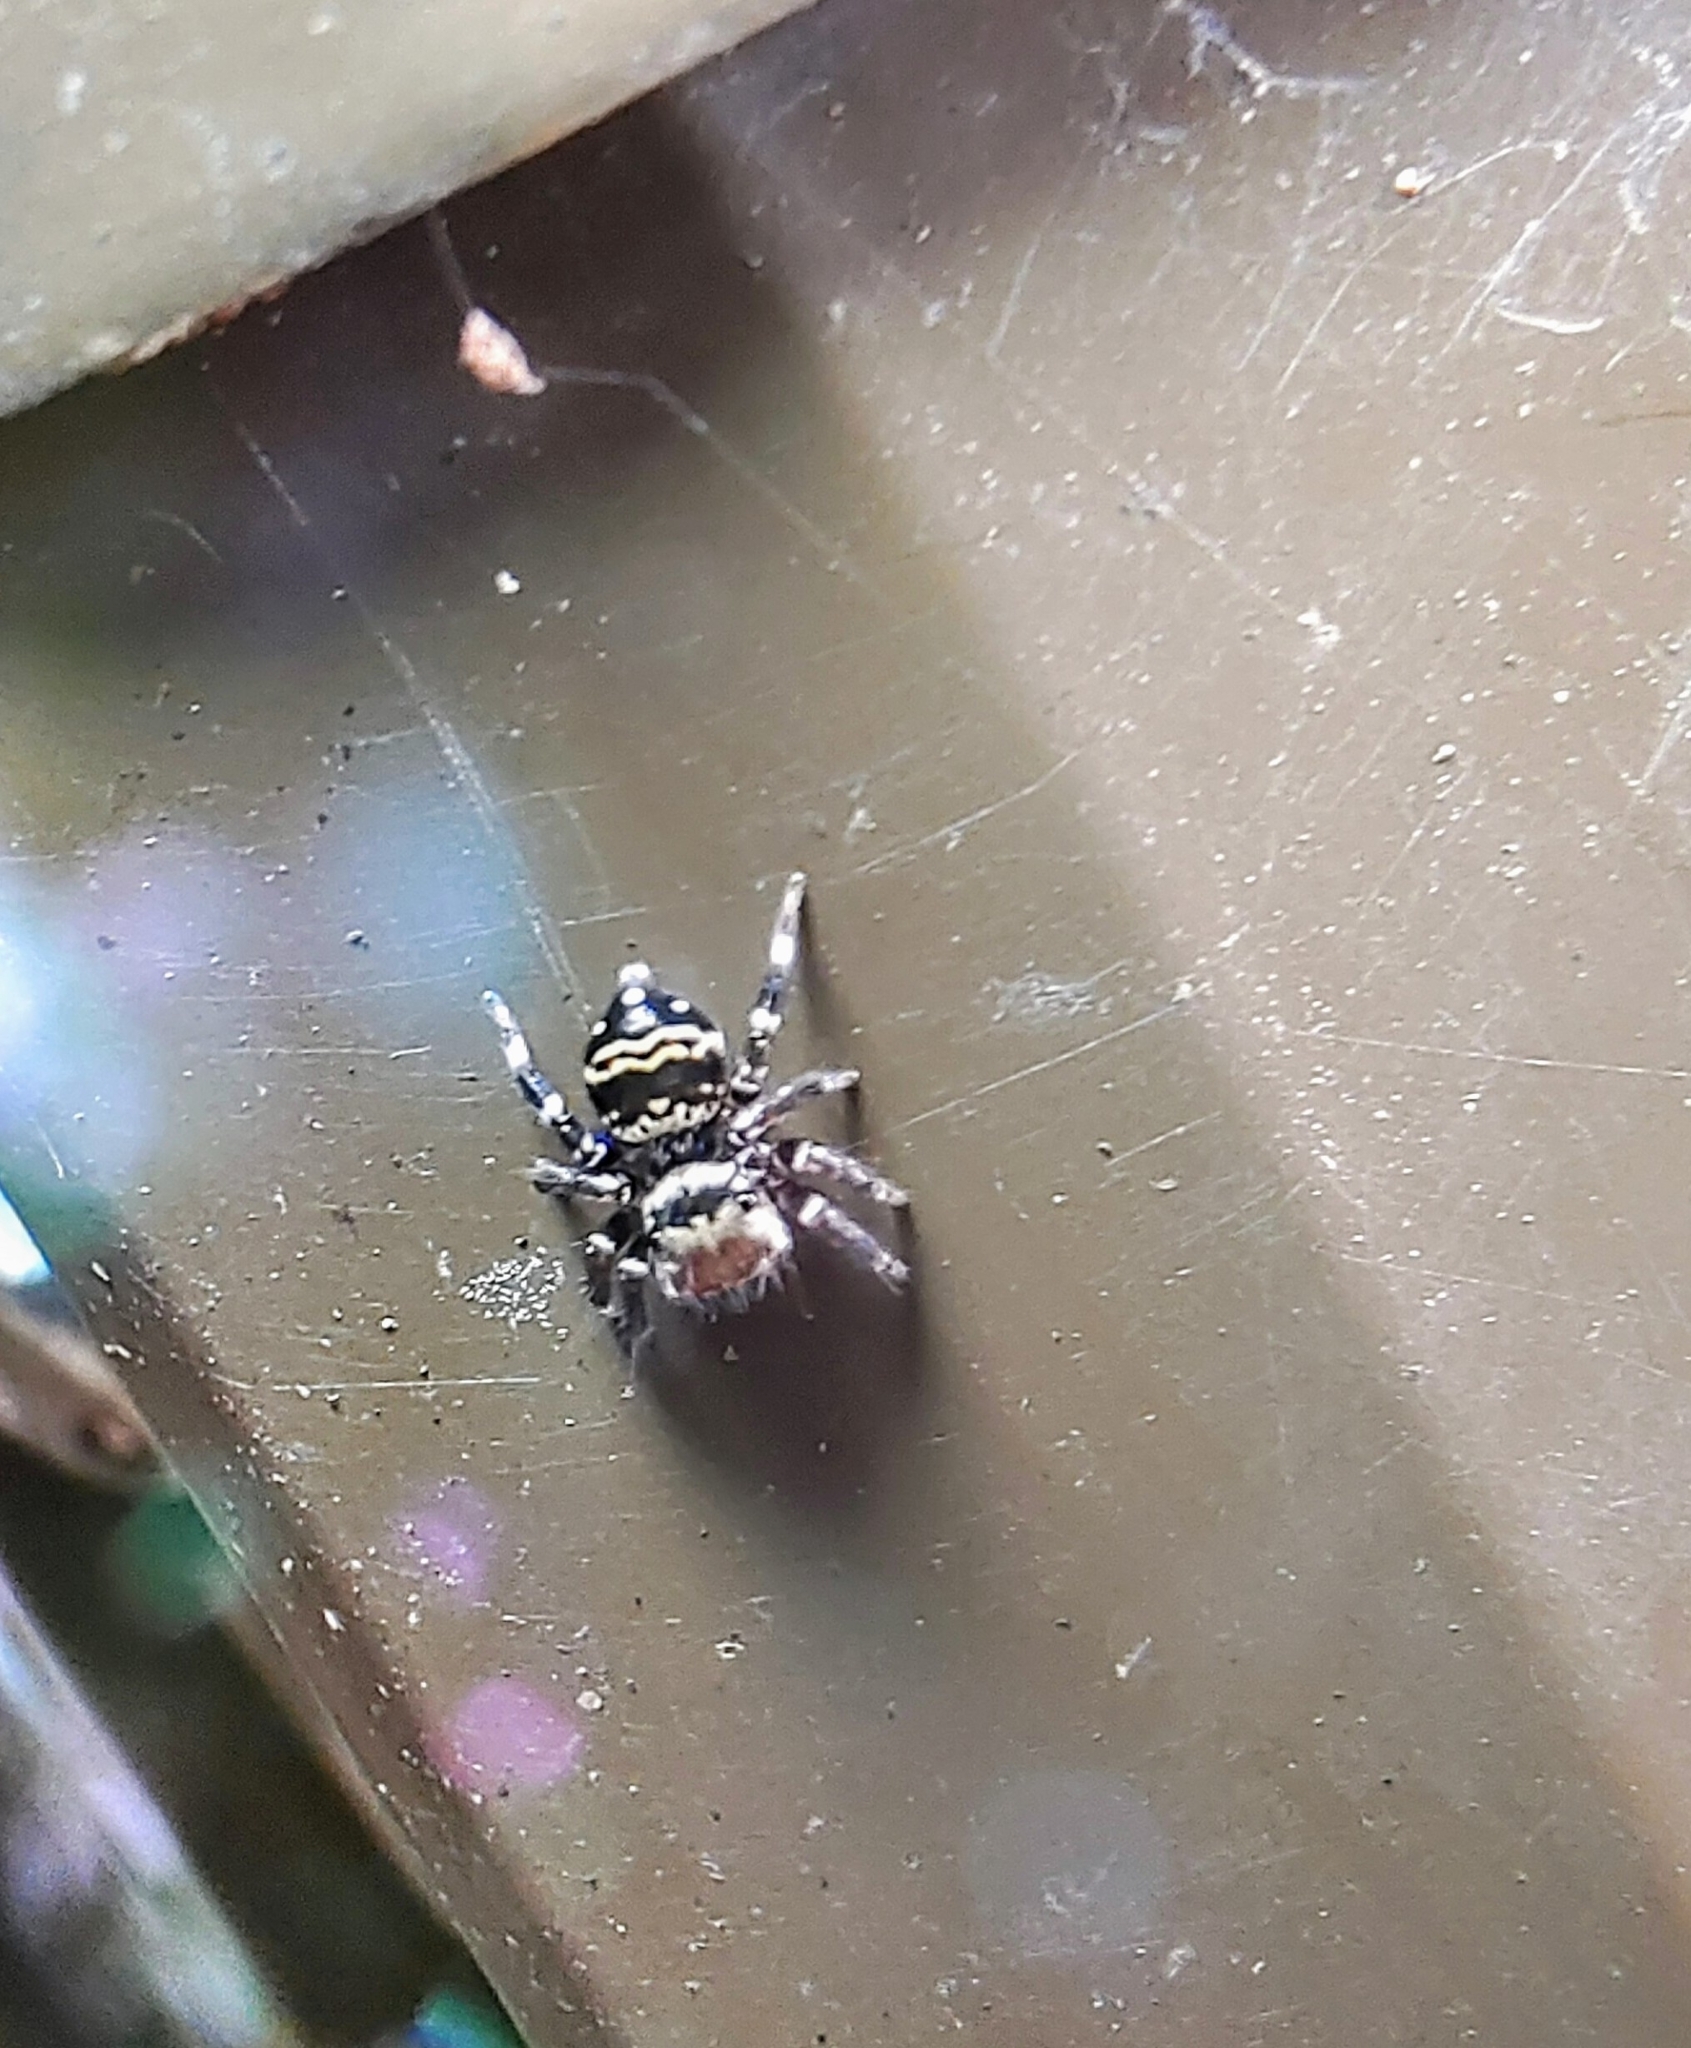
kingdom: Animalia
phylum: Arthropoda
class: Arachnida
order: Araneae
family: Salticidae
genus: Thorelliola
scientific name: Thorelliola ensifera
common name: Jumping spider
